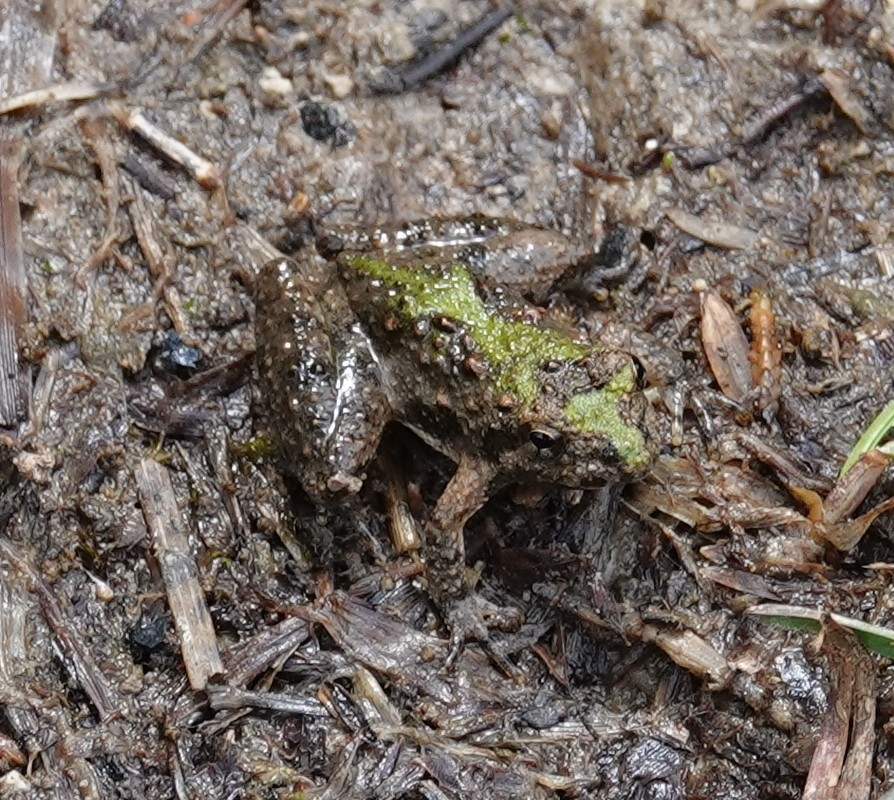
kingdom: Animalia
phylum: Chordata
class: Amphibia
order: Anura
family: Hylidae
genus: Acris
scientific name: Acris blanchardi
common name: Blanchard's cricket frog
